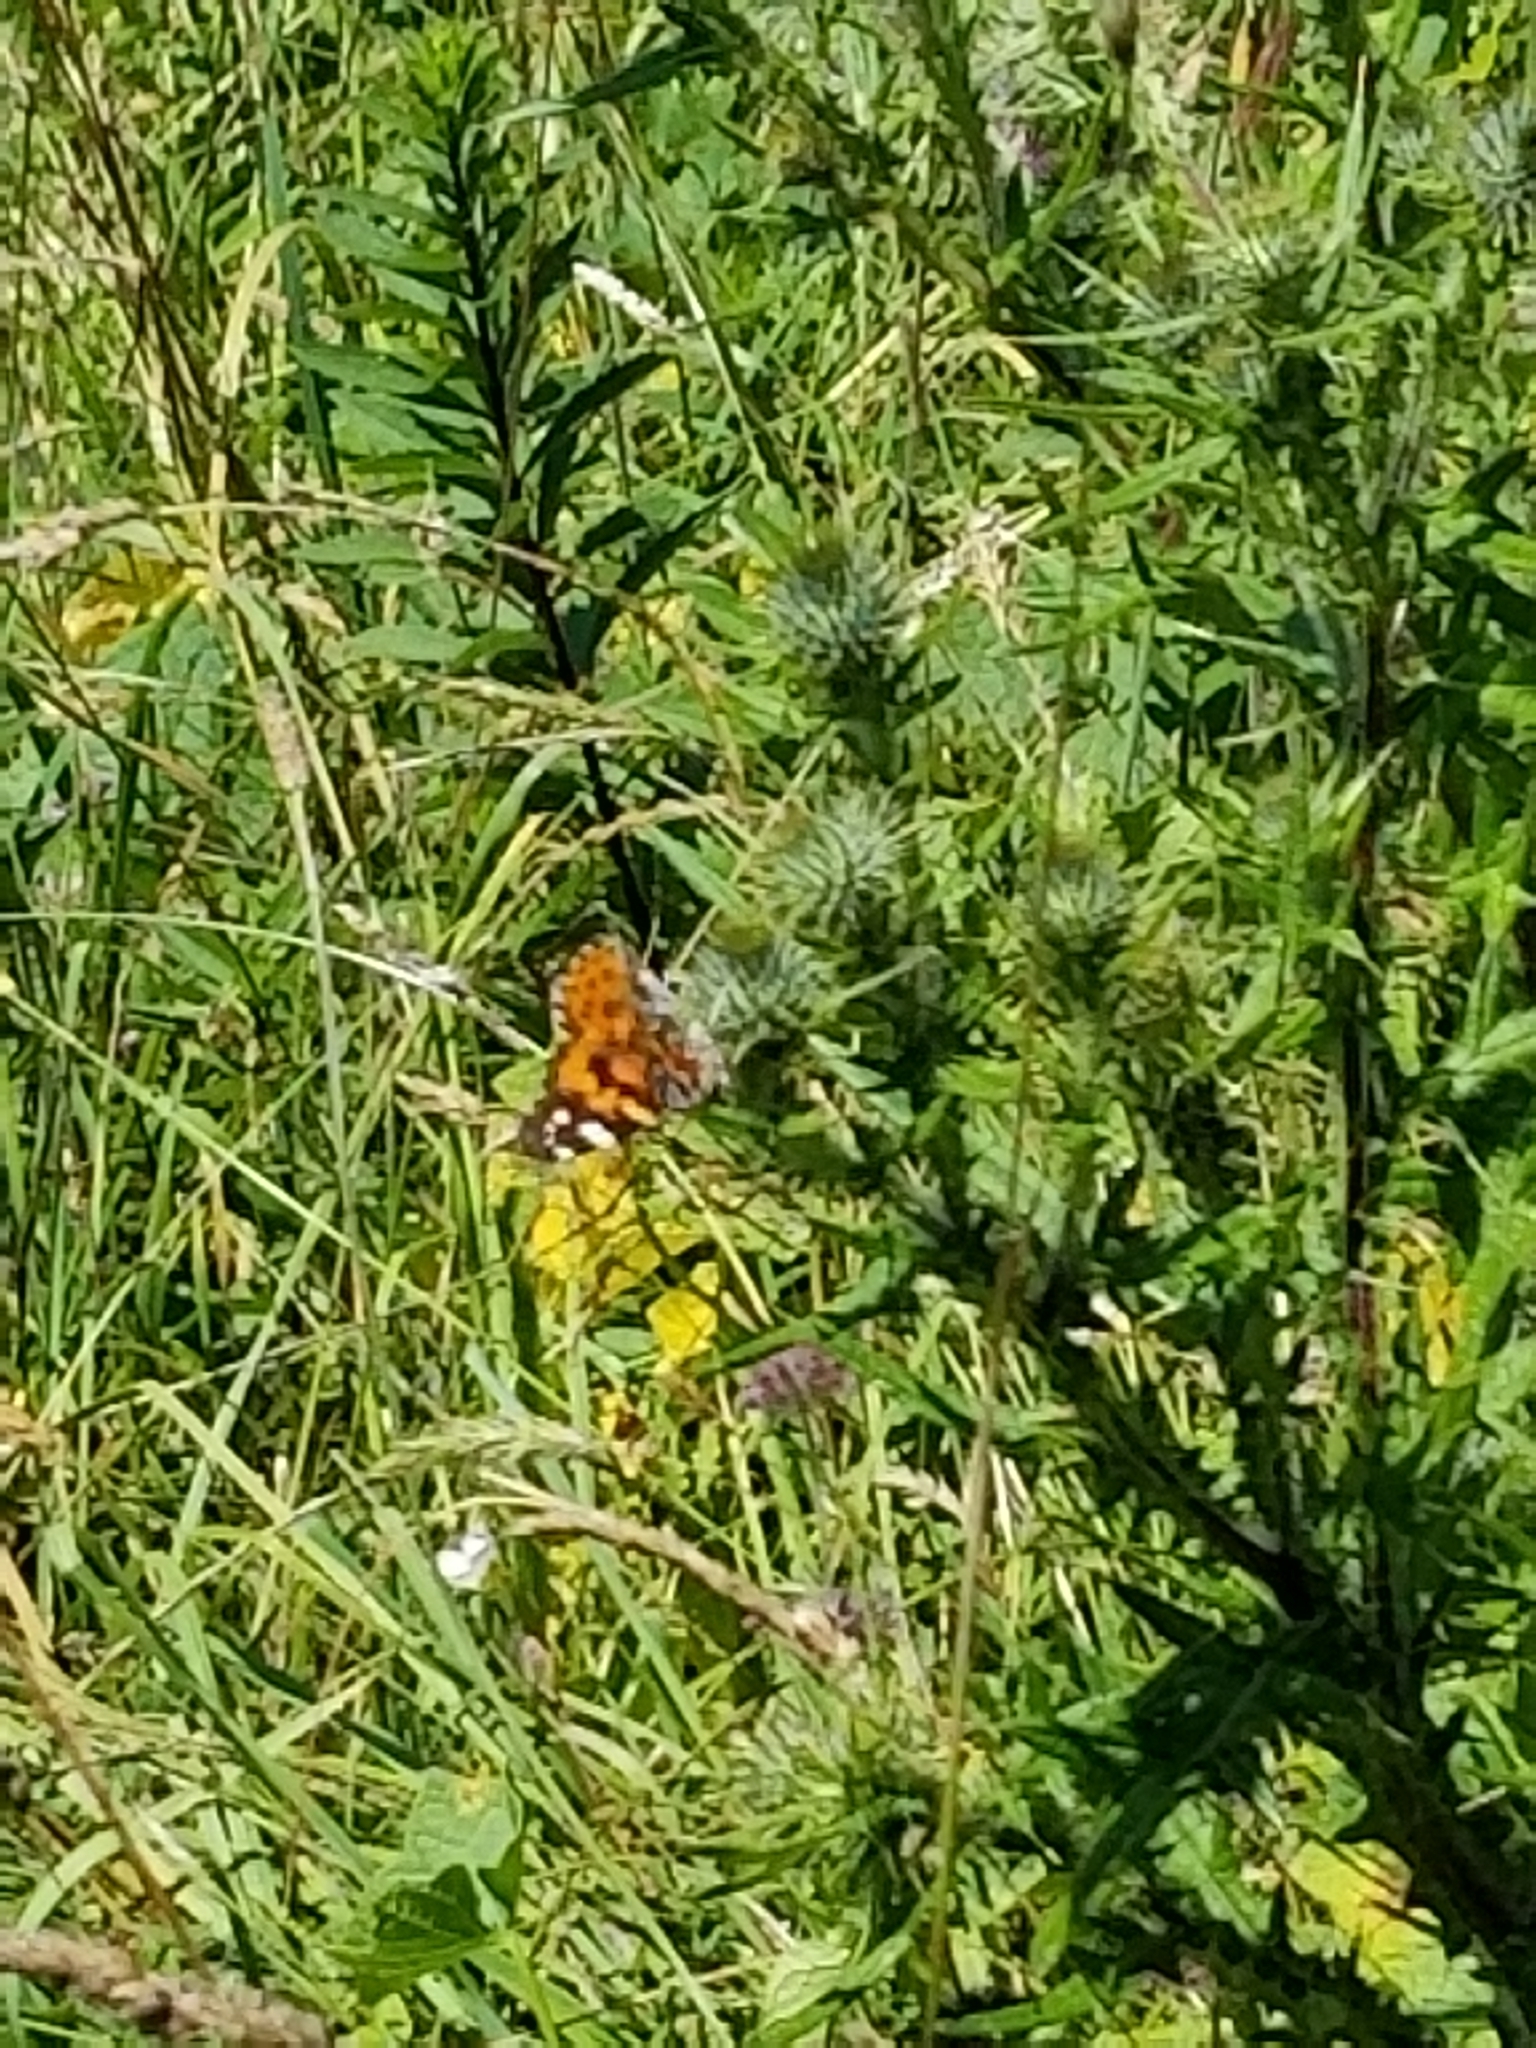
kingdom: Animalia
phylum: Arthropoda
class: Insecta
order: Lepidoptera
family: Nymphalidae
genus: Vanessa
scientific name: Vanessa cardui
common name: Painted lady
